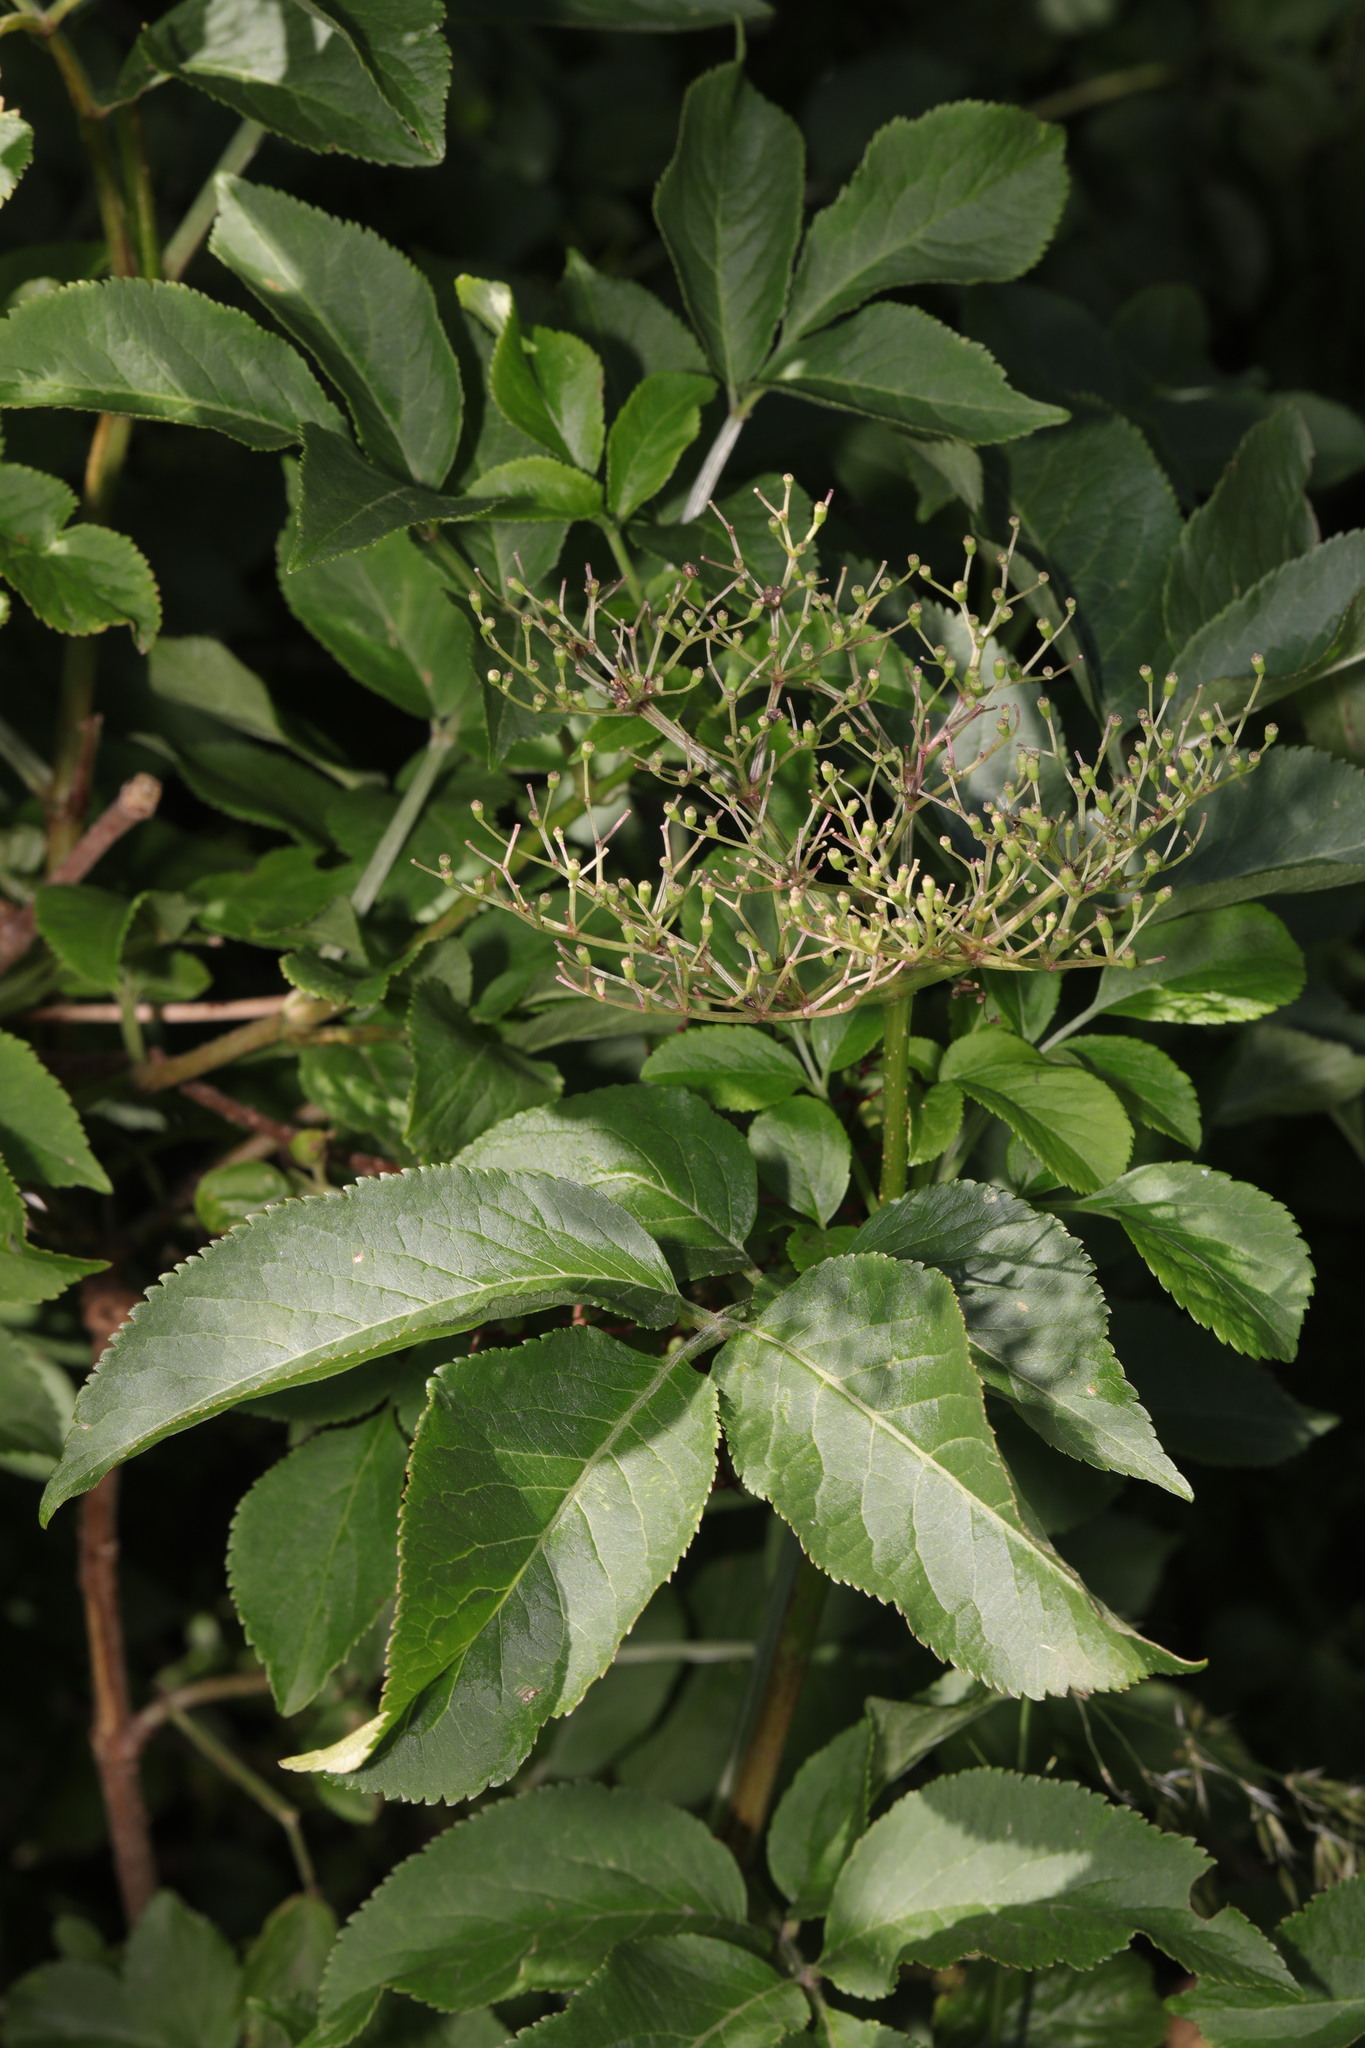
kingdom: Plantae
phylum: Tracheophyta
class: Magnoliopsida
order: Dipsacales
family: Viburnaceae
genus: Sambucus
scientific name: Sambucus nigra
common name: Elder
